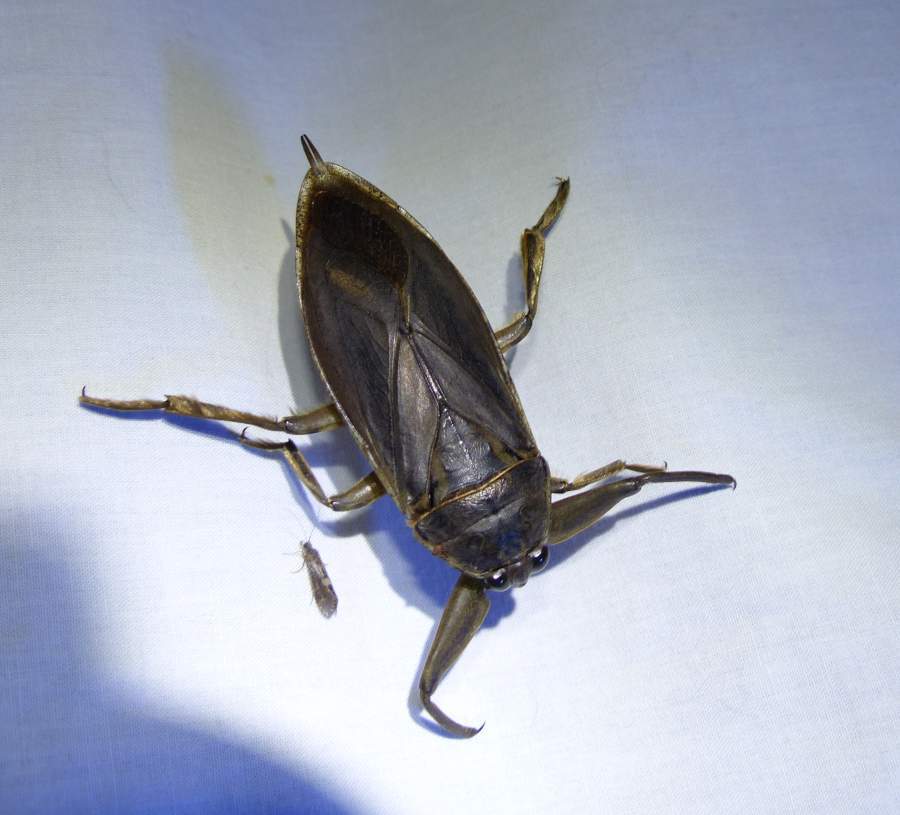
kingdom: Animalia
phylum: Arthropoda
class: Insecta
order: Hemiptera
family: Belostomatidae
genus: Lethocerus
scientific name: Lethocerus americanus
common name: Giant water bug
